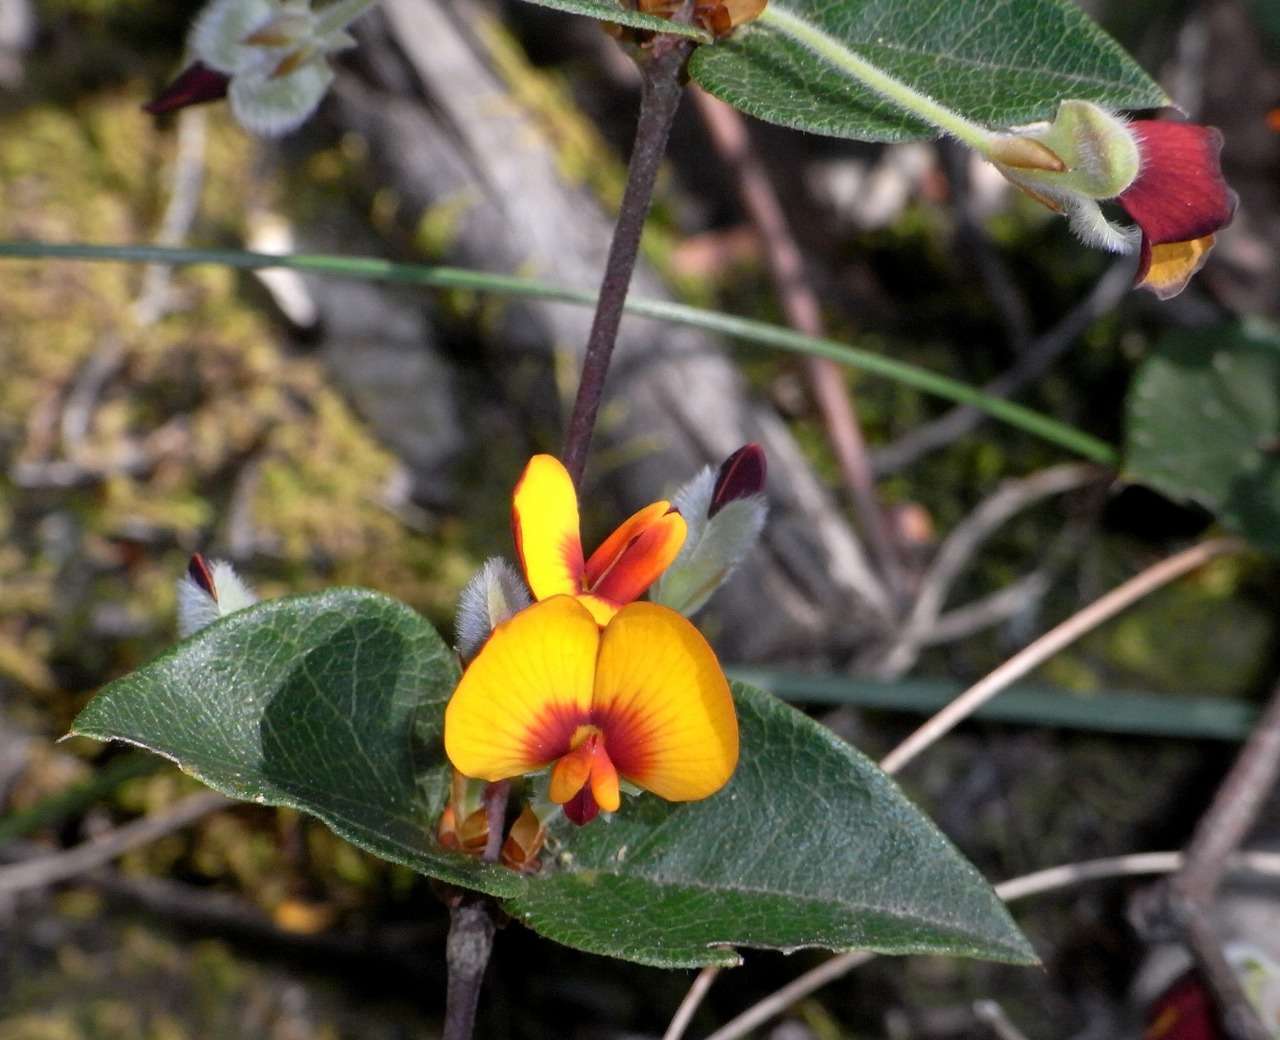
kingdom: Plantae
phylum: Tracheophyta
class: Magnoliopsida
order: Fabales
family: Fabaceae
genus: Platylobium
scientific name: Platylobium formosum
